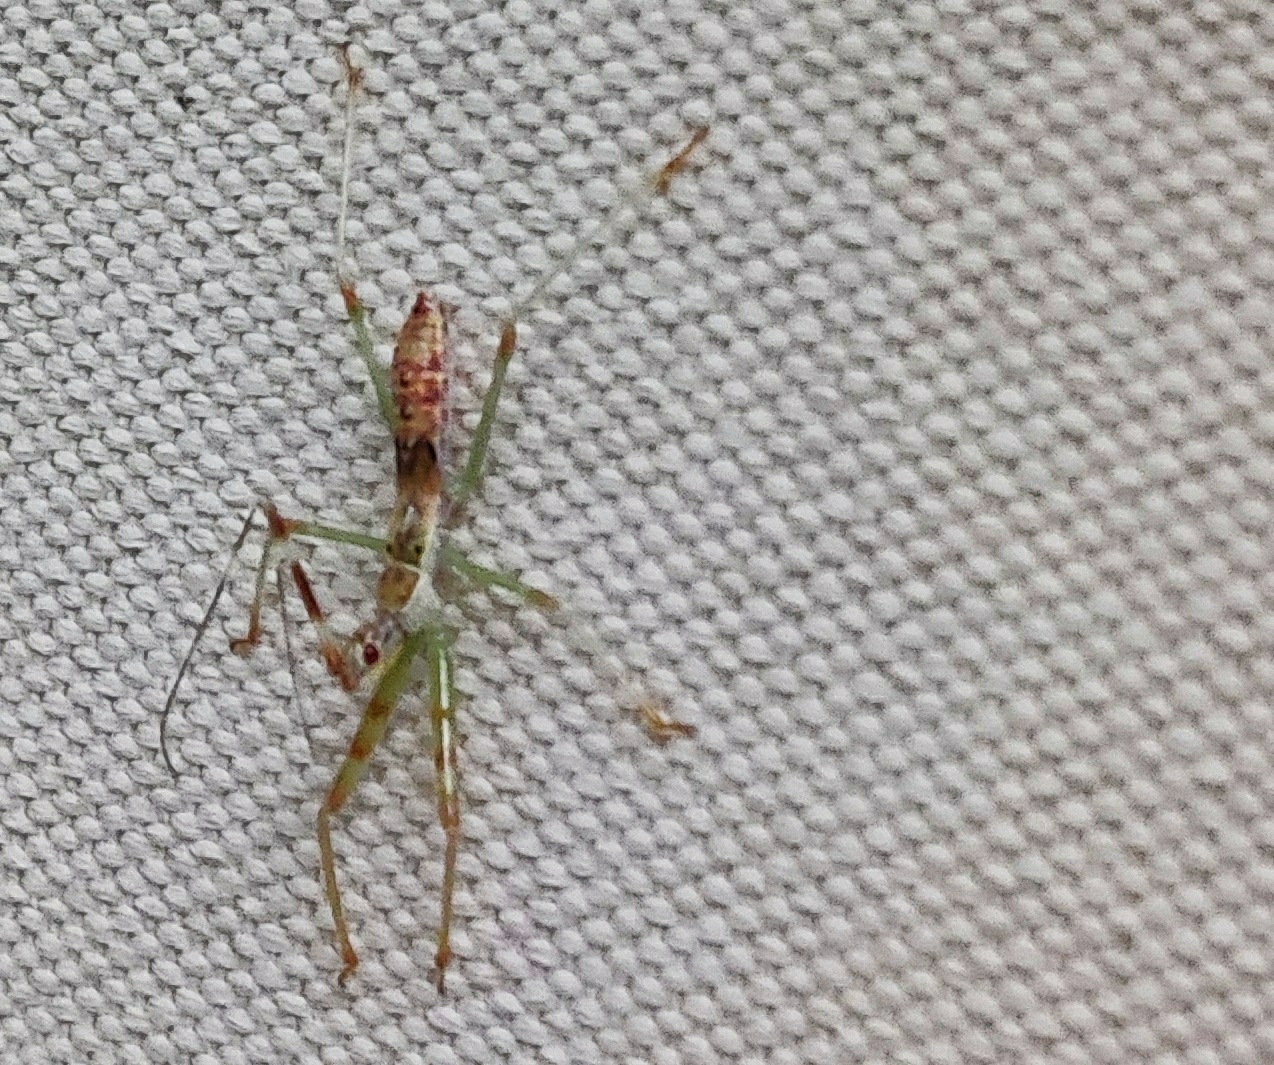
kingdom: Animalia
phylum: Arthropoda
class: Insecta
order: Hemiptera
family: Reduviidae
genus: Nagusta
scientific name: Nagusta goedelii
